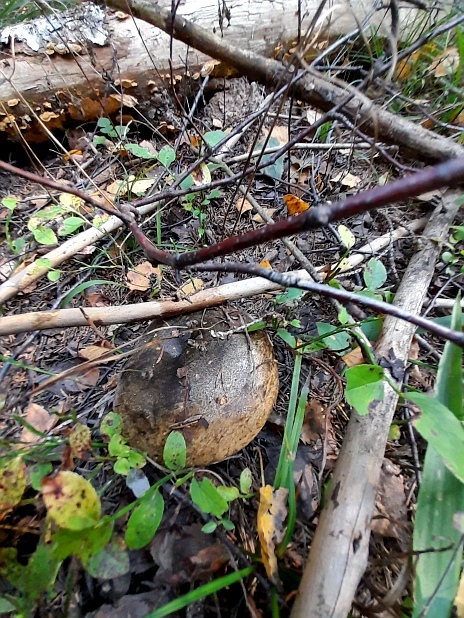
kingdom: Fungi
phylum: Basidiomycota
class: Agaricomycetes
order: Russulales
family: Russulaceae
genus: Lactarius
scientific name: Lactarius turpis
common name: Ugly milk-cap
